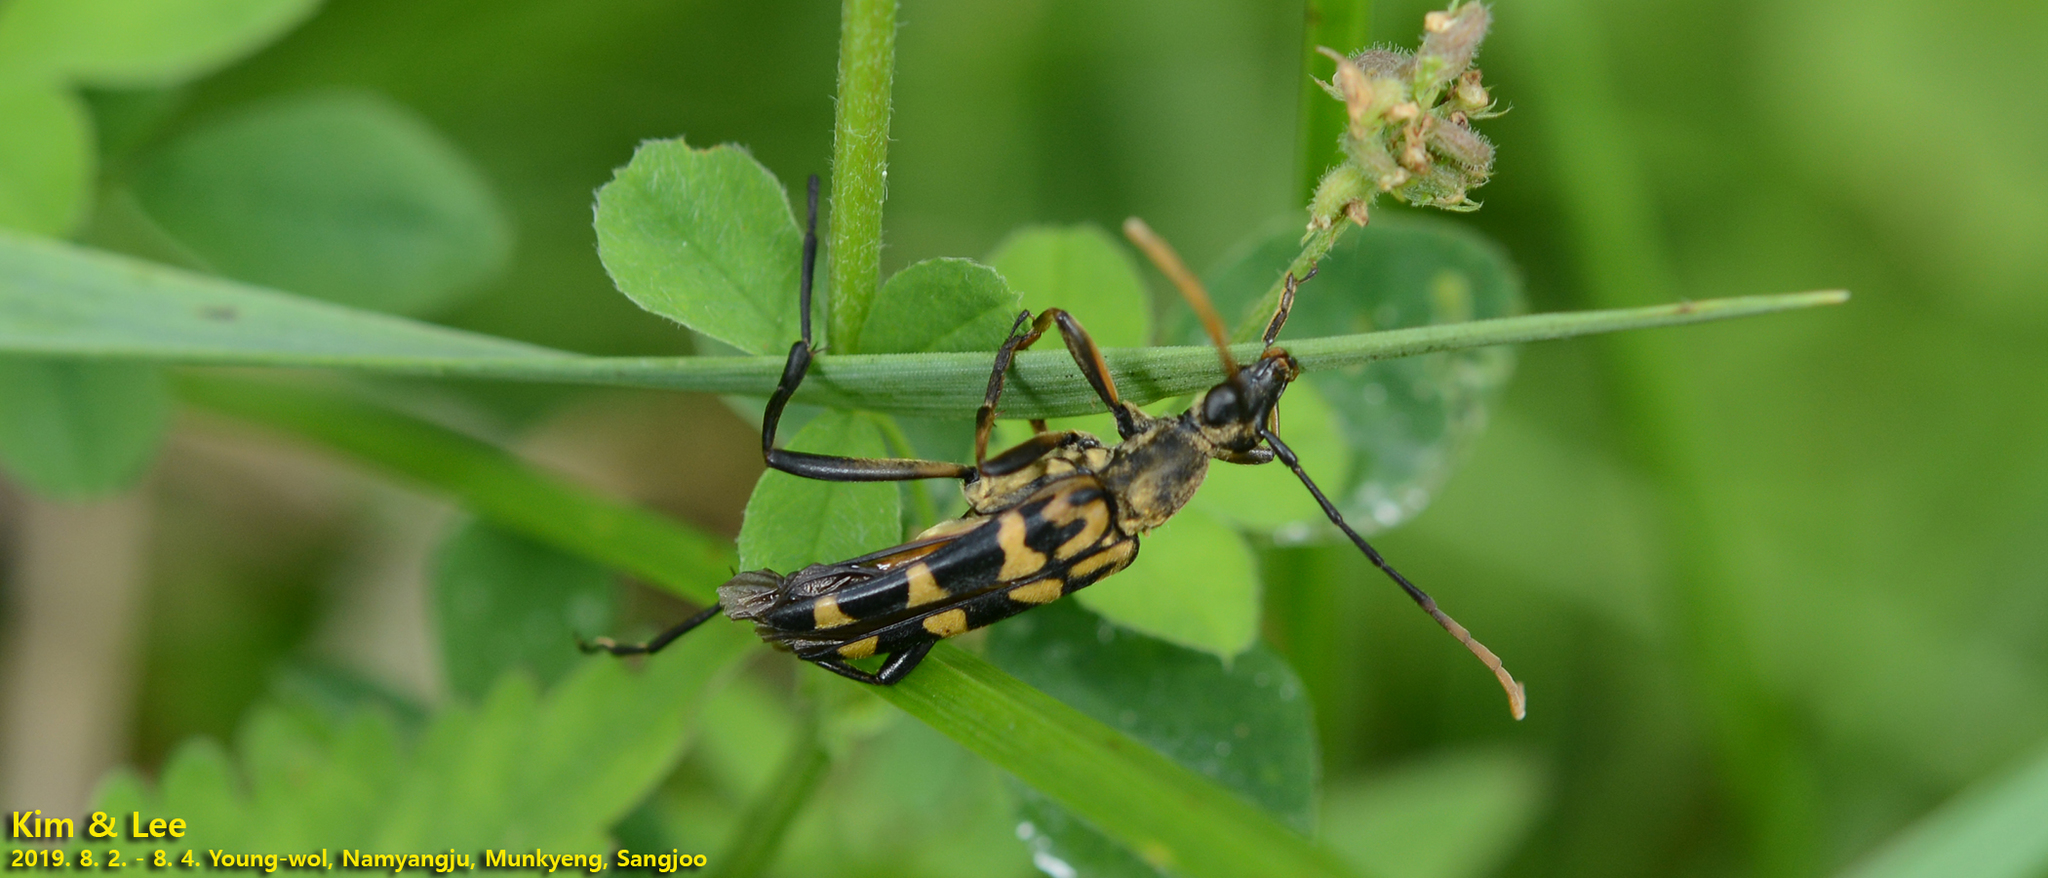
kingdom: Animalia
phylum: Arthropoda
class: Insecta
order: Coleoptera
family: Cerambycidae
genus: Leptura
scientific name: Leptura annularis
